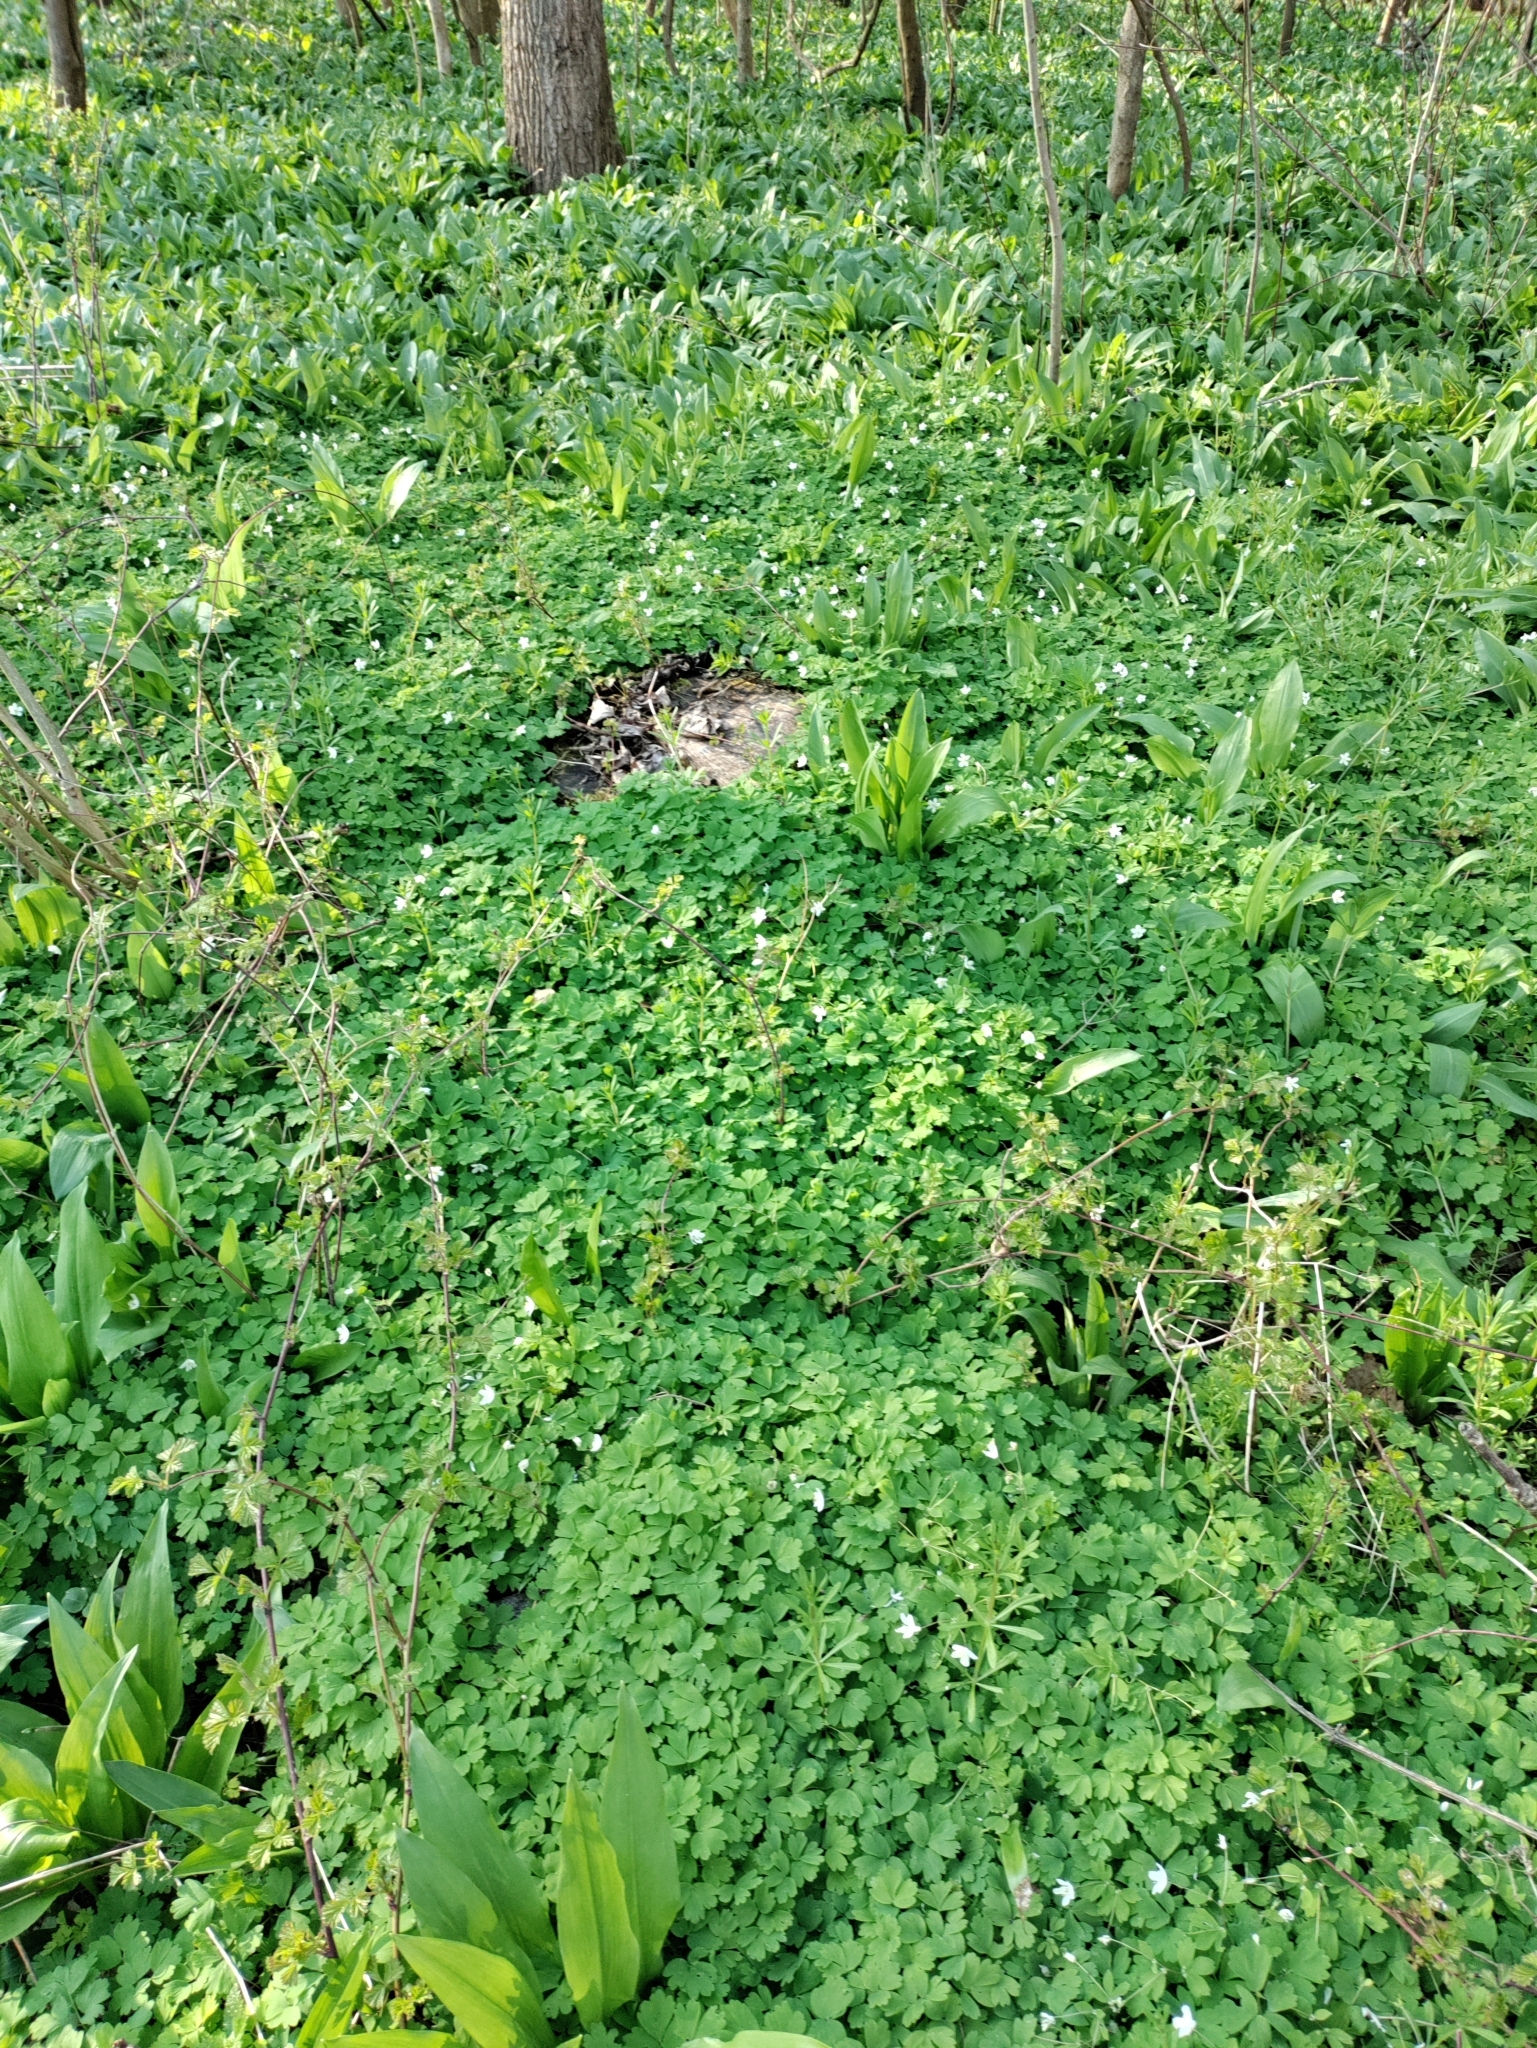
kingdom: Plantae
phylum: Tracheophyta
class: Magnoliopsida
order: Ranunculales
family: Ranunculaceae
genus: Isopyrum
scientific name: Isopyrum thalictroides
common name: Isopyrum
